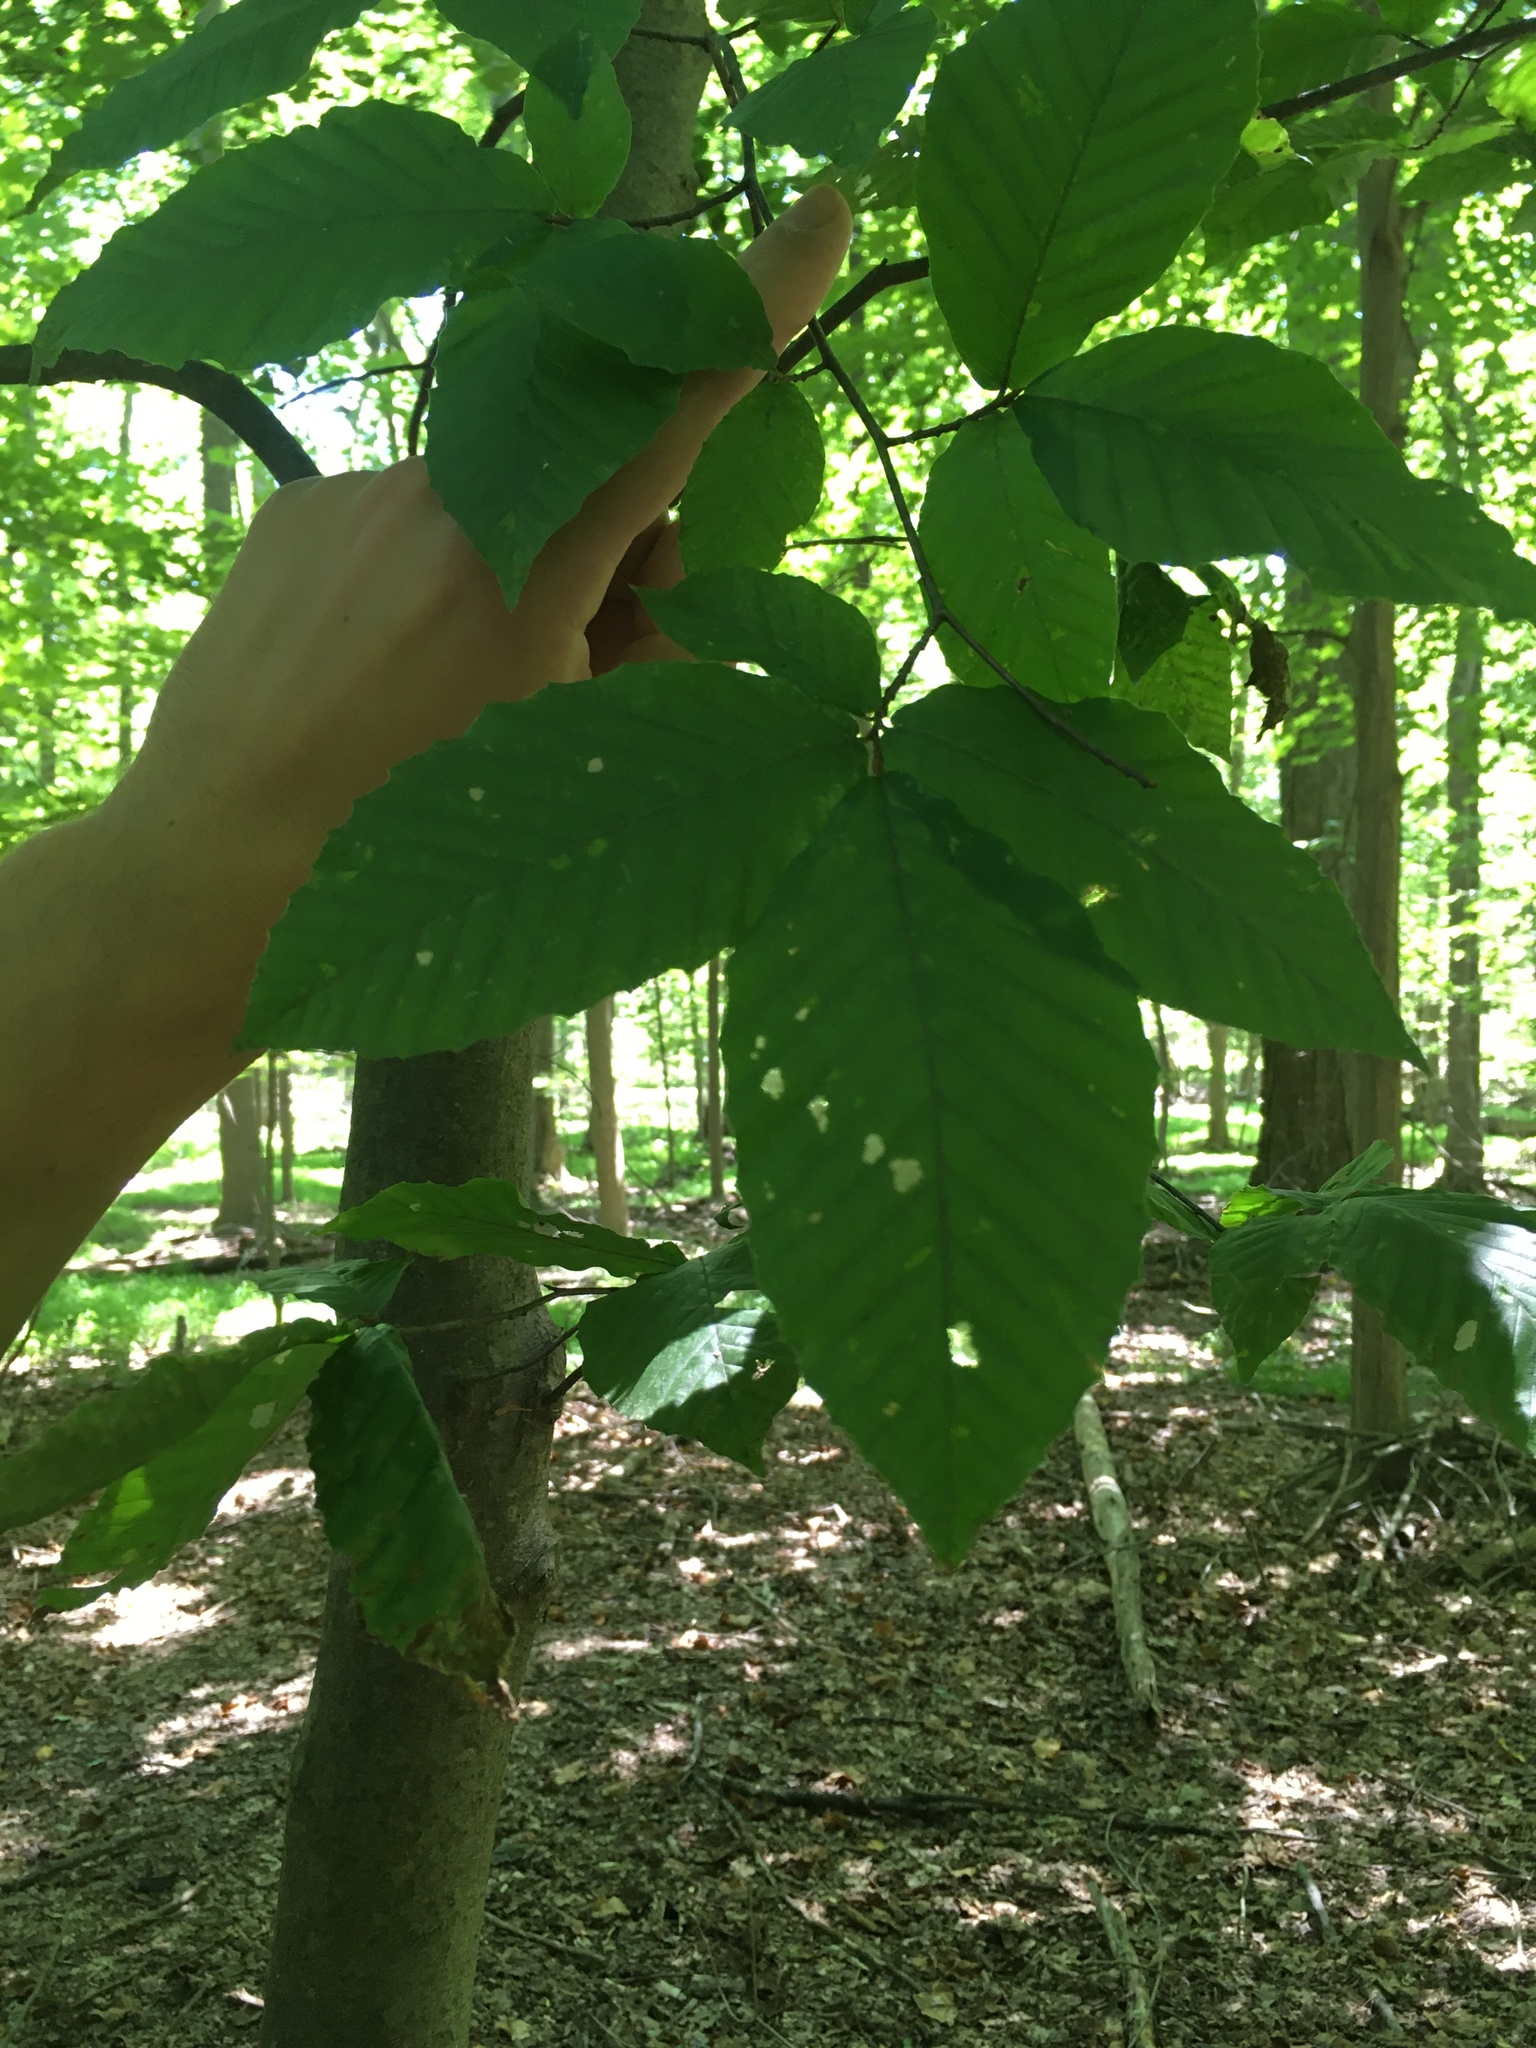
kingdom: Plantae
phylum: Tracheophyta
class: Magnoliopsida
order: Fagales
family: Fagaceae
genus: Fagus
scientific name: Fagus grandifolia
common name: American beech
